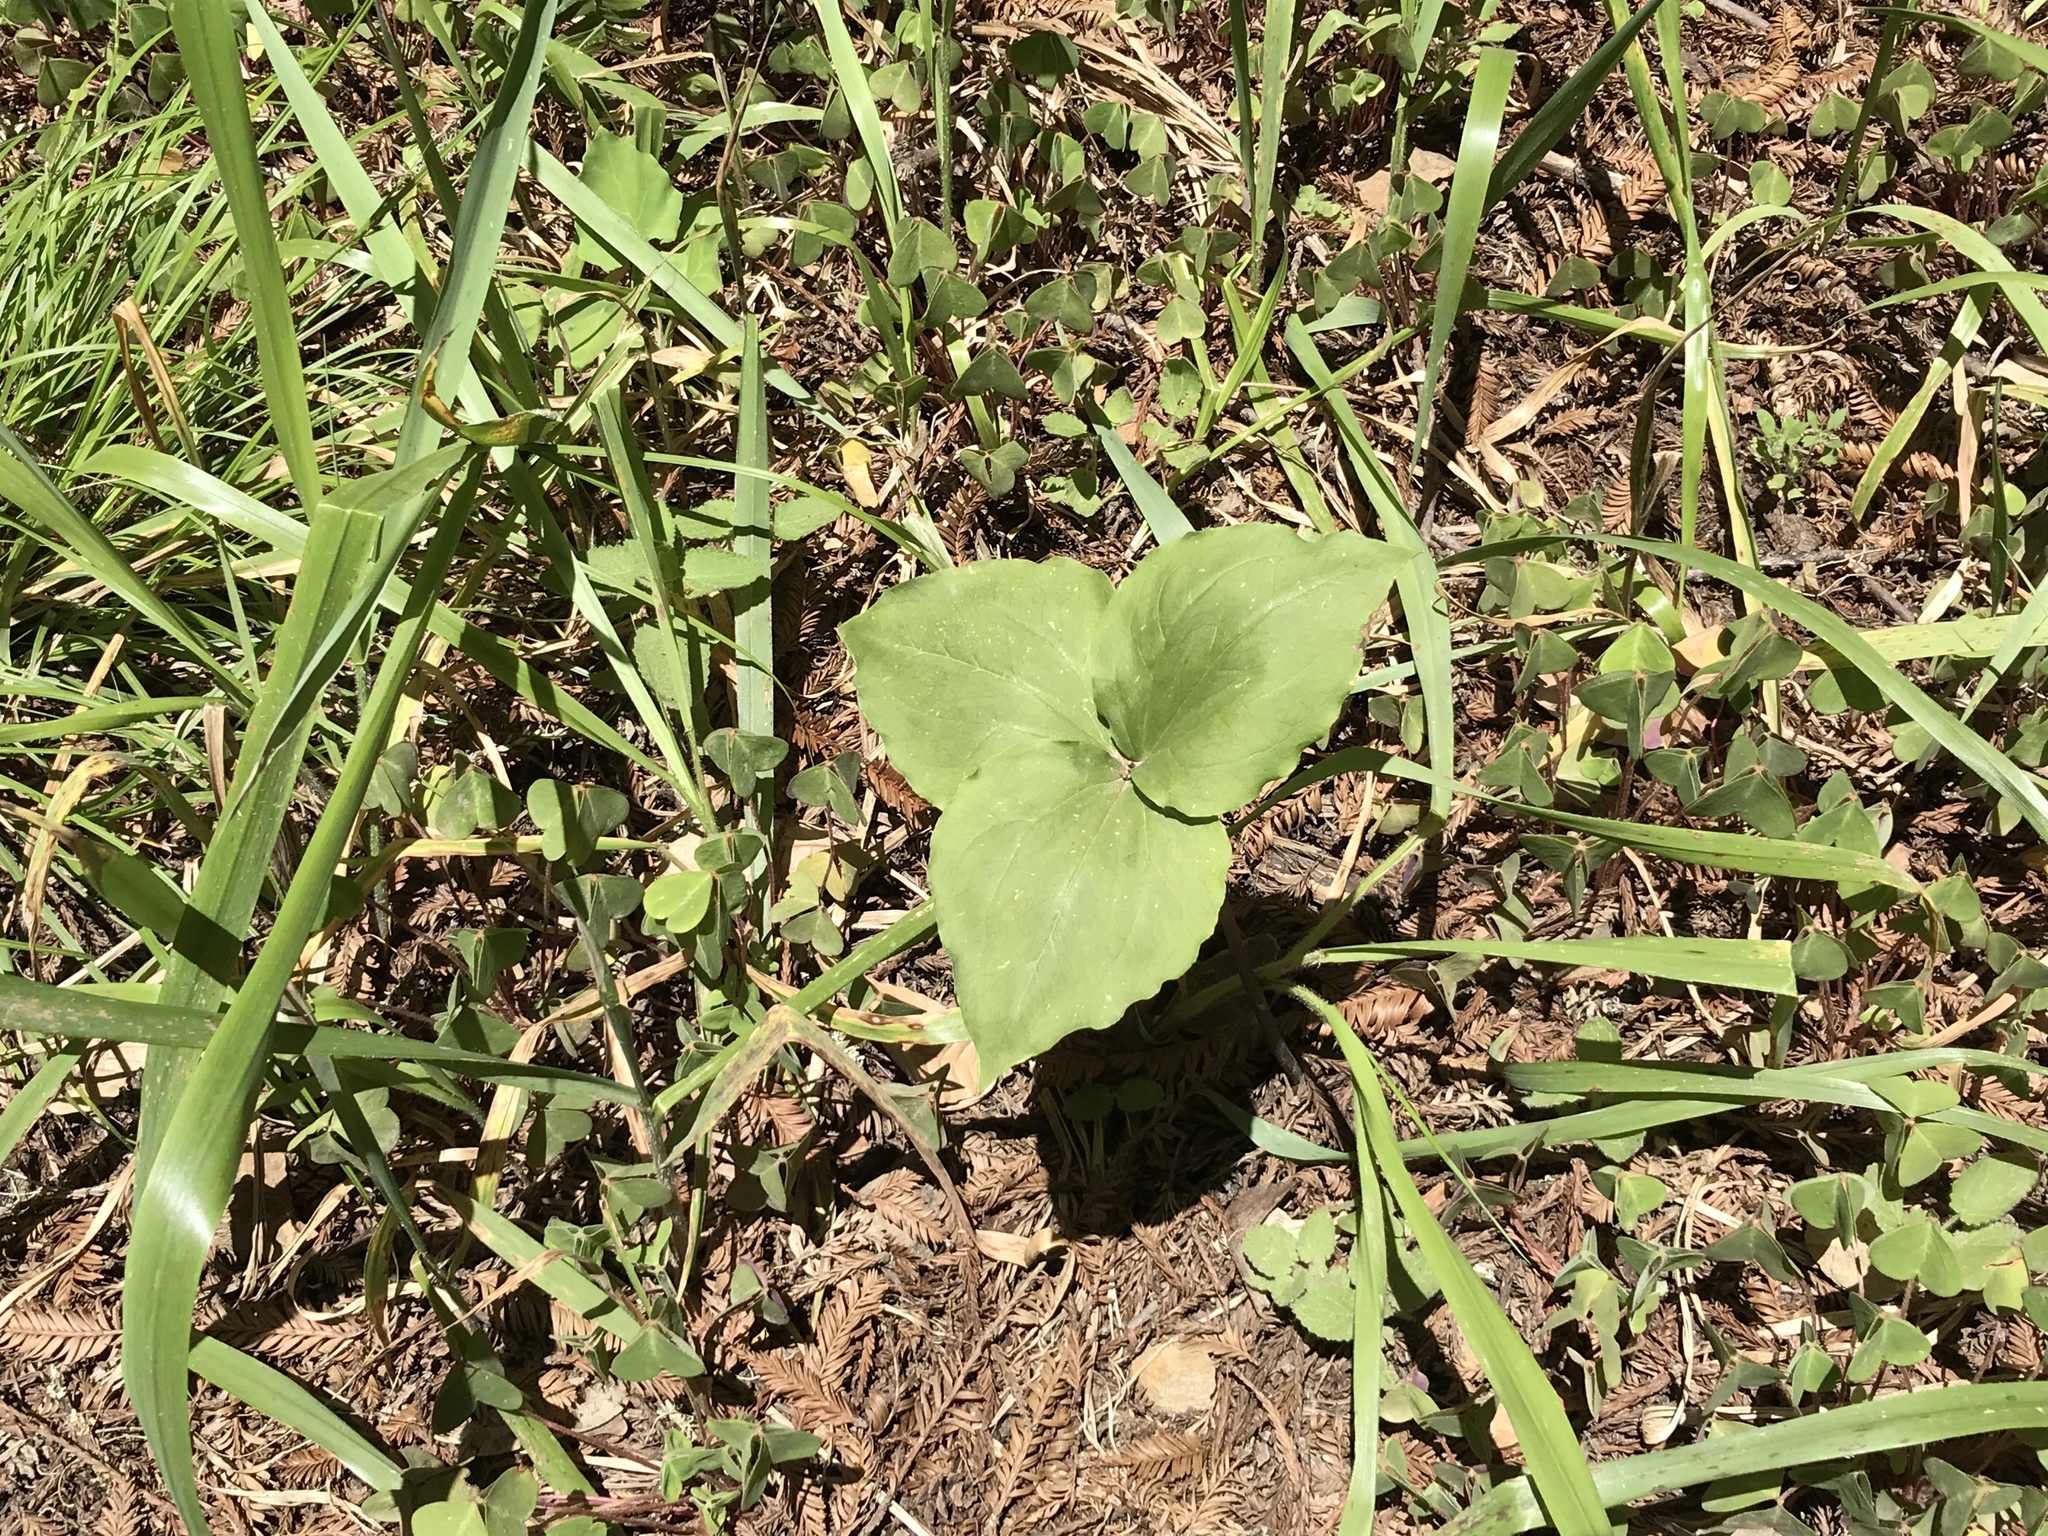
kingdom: Plantae
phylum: Tracheophyta
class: Liliopsida
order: Liliales
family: Melanthiaceae
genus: Trillium
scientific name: Trillium ovatum
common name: Pacific trillium
